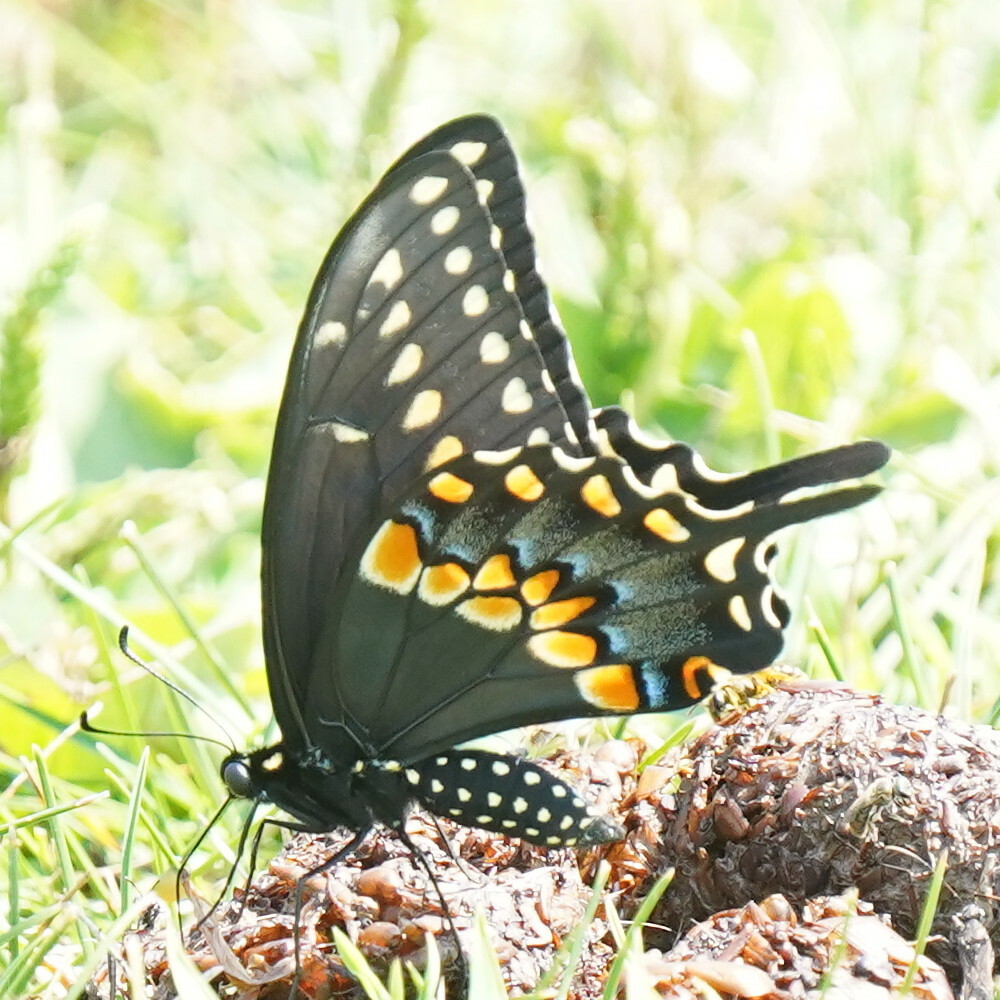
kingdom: Animalia
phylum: Arthropoda
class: Insecta
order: Lepidoptera
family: Papilionidae
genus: Papilio
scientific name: Papilio polyxenes
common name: Black swallowtail
